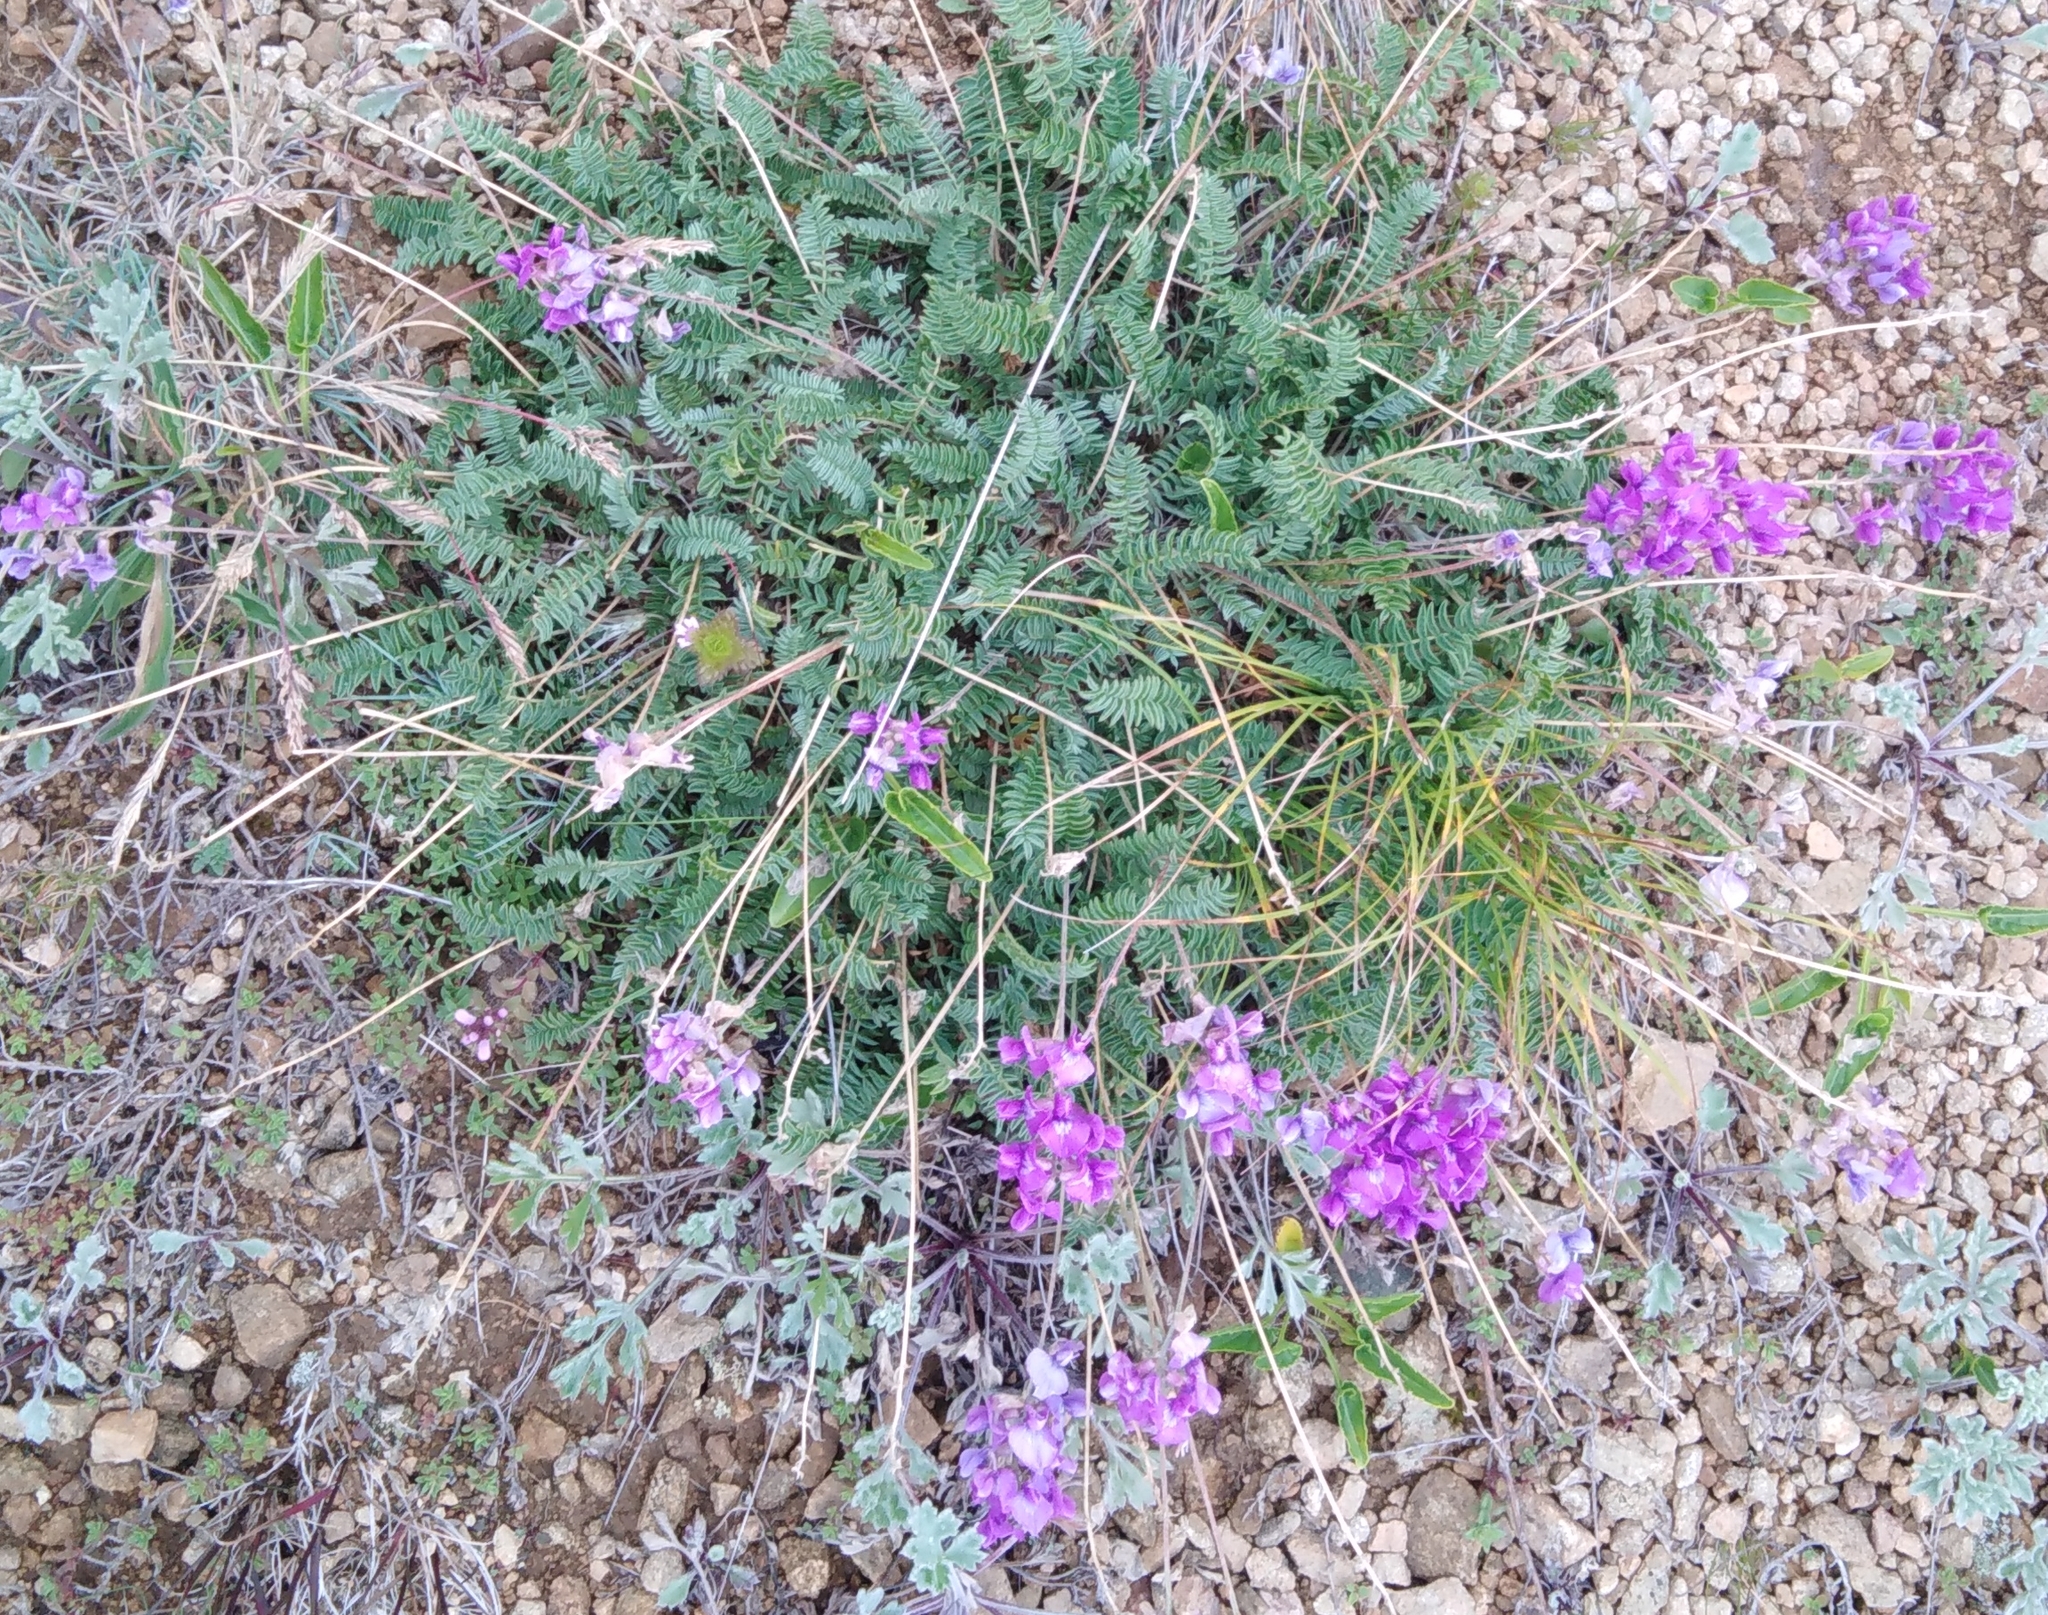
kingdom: Plantae
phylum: Tracheophyta
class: Magnoliopsida
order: Fabales
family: Fabaceae
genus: Oxytropis
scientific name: Oxytropis coerulea
